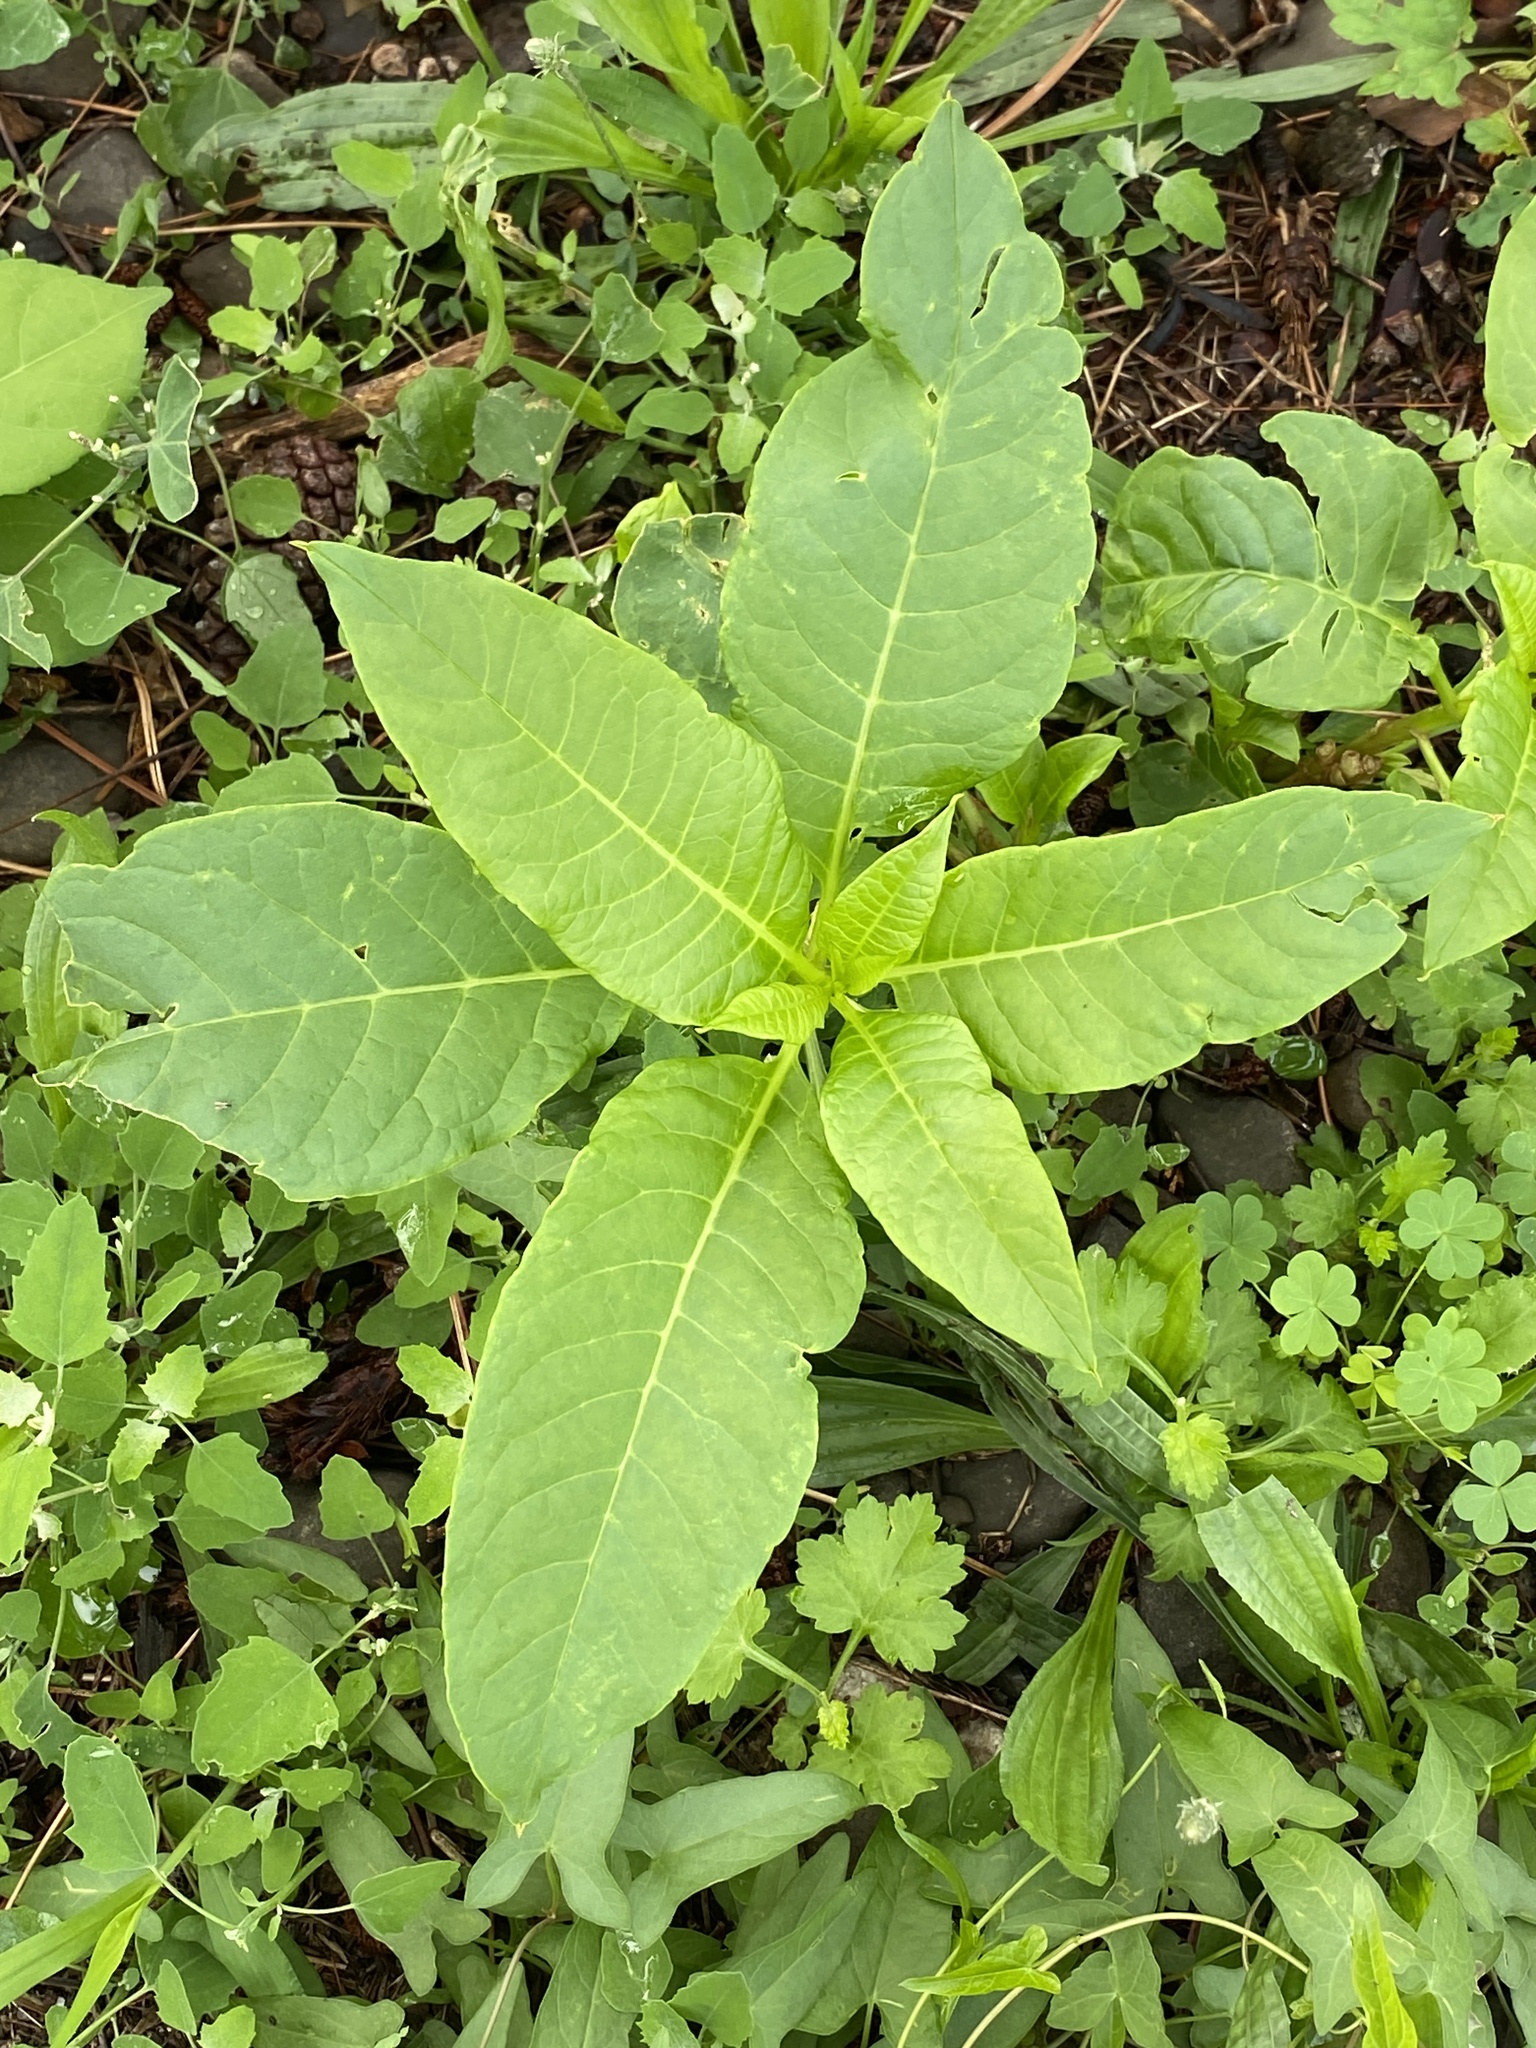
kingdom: Plantae
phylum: Tracheophyta
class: Magnoliopsida
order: Caryophyllales
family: Phytolaccaceae
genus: Phytolacca
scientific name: Phytolacca americana
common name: American pokeweed
